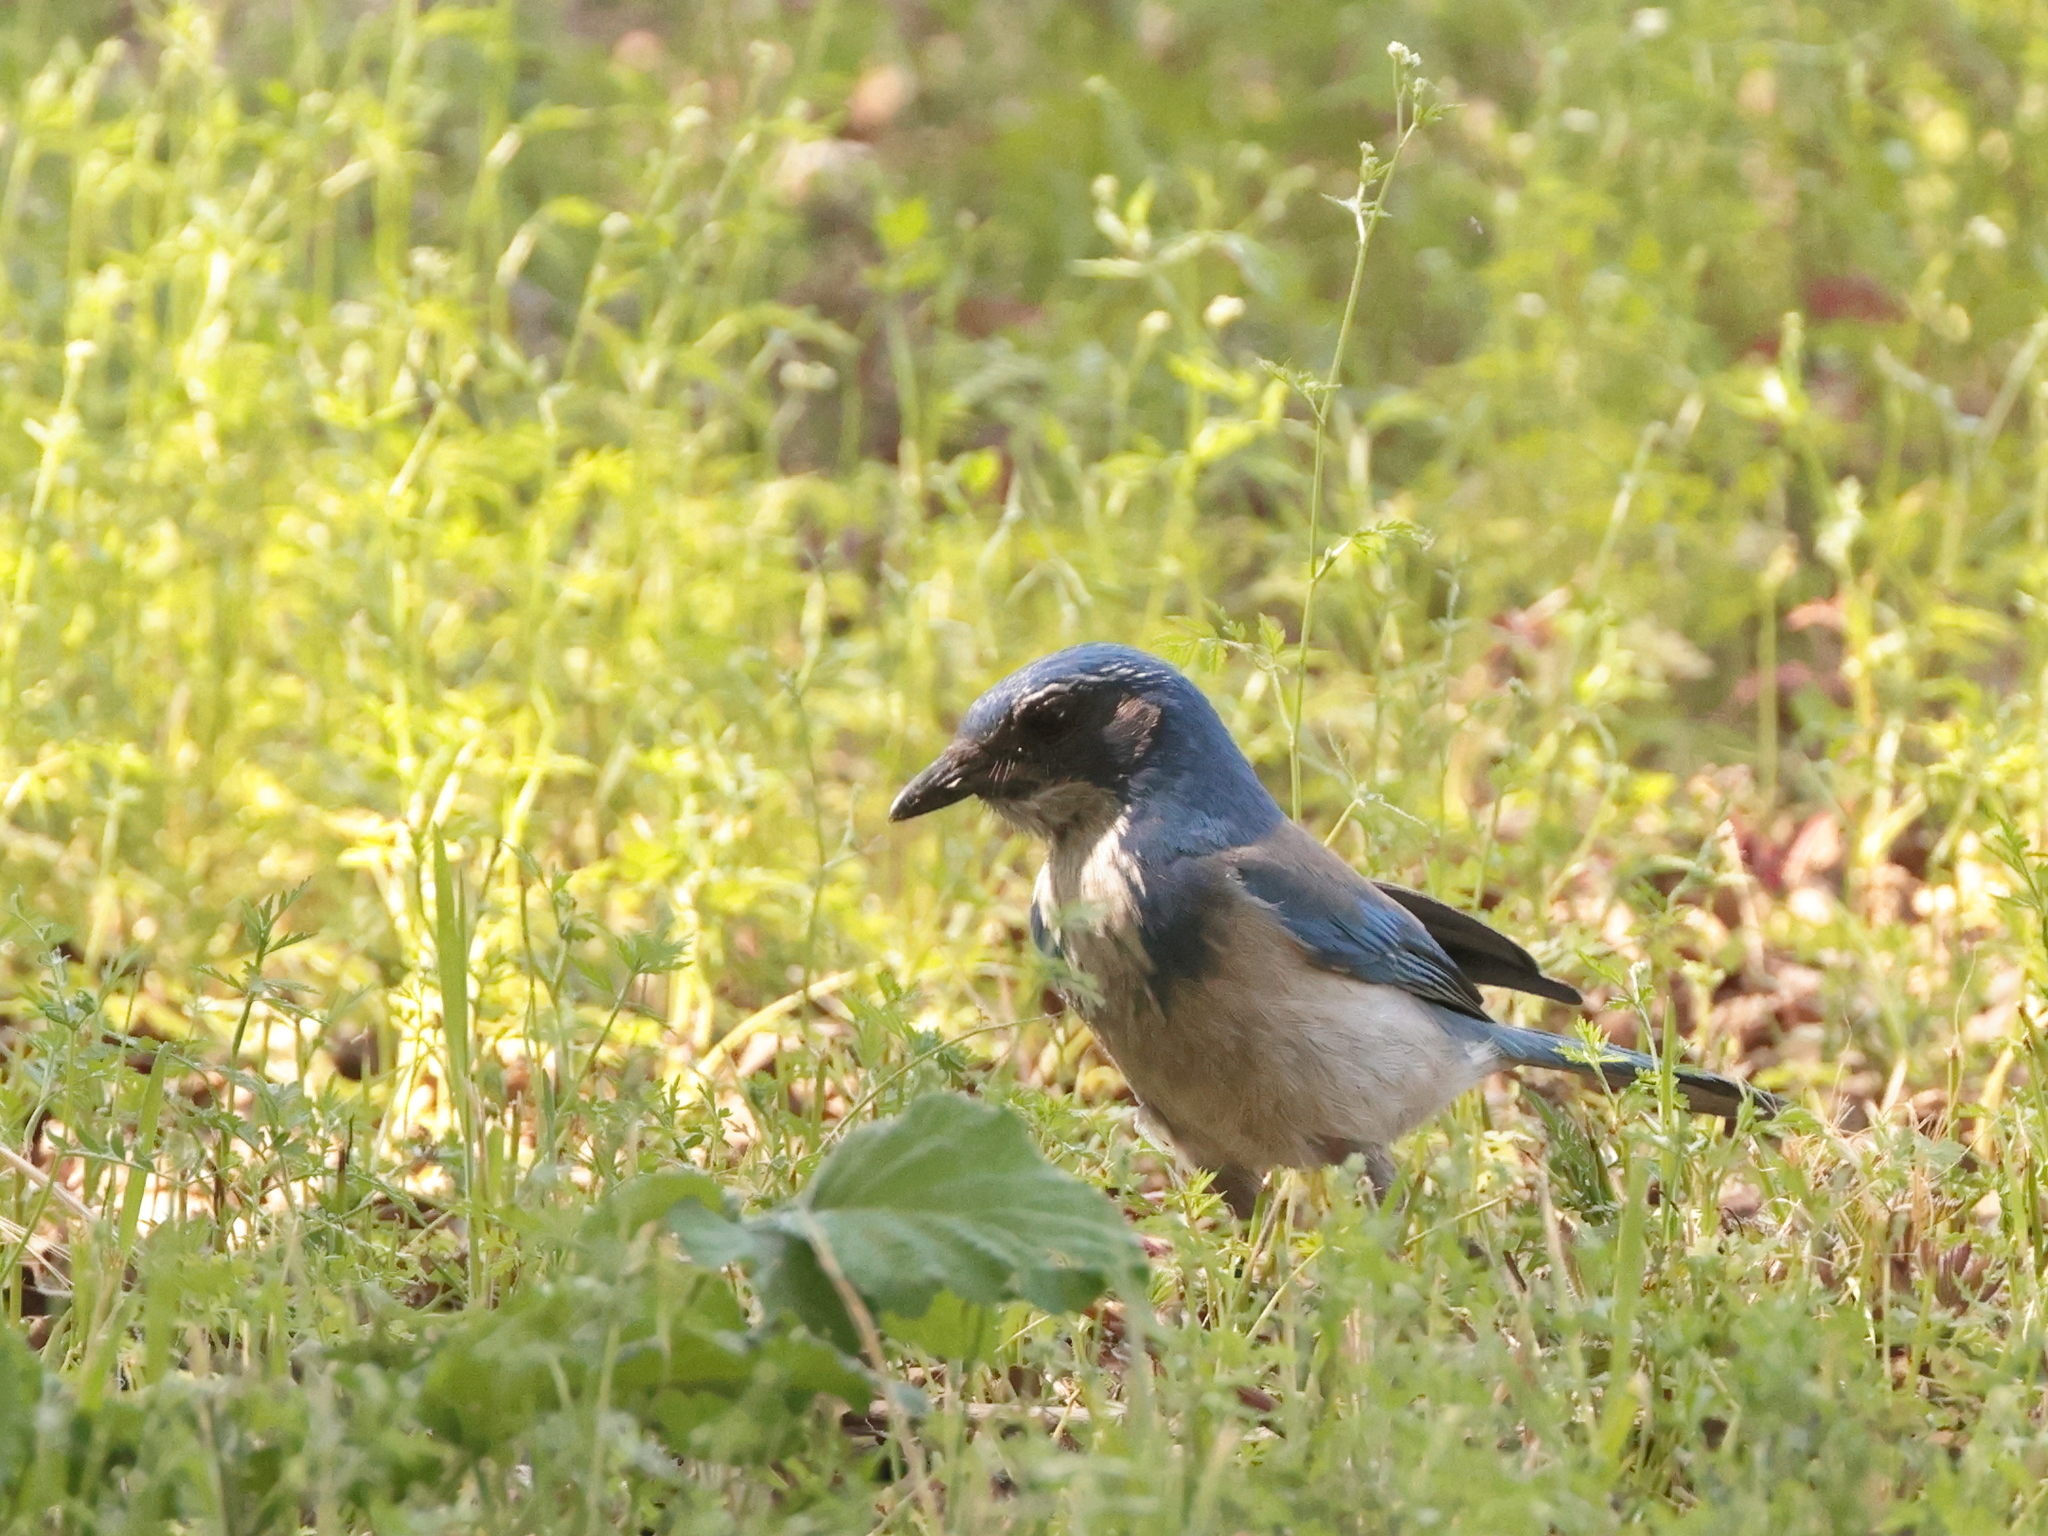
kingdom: Animalia
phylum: Chordata
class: Aves
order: Passeriformes
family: Corvidae
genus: Aphelocoma
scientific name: Aphelocoma californica
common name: California scrub-jay
